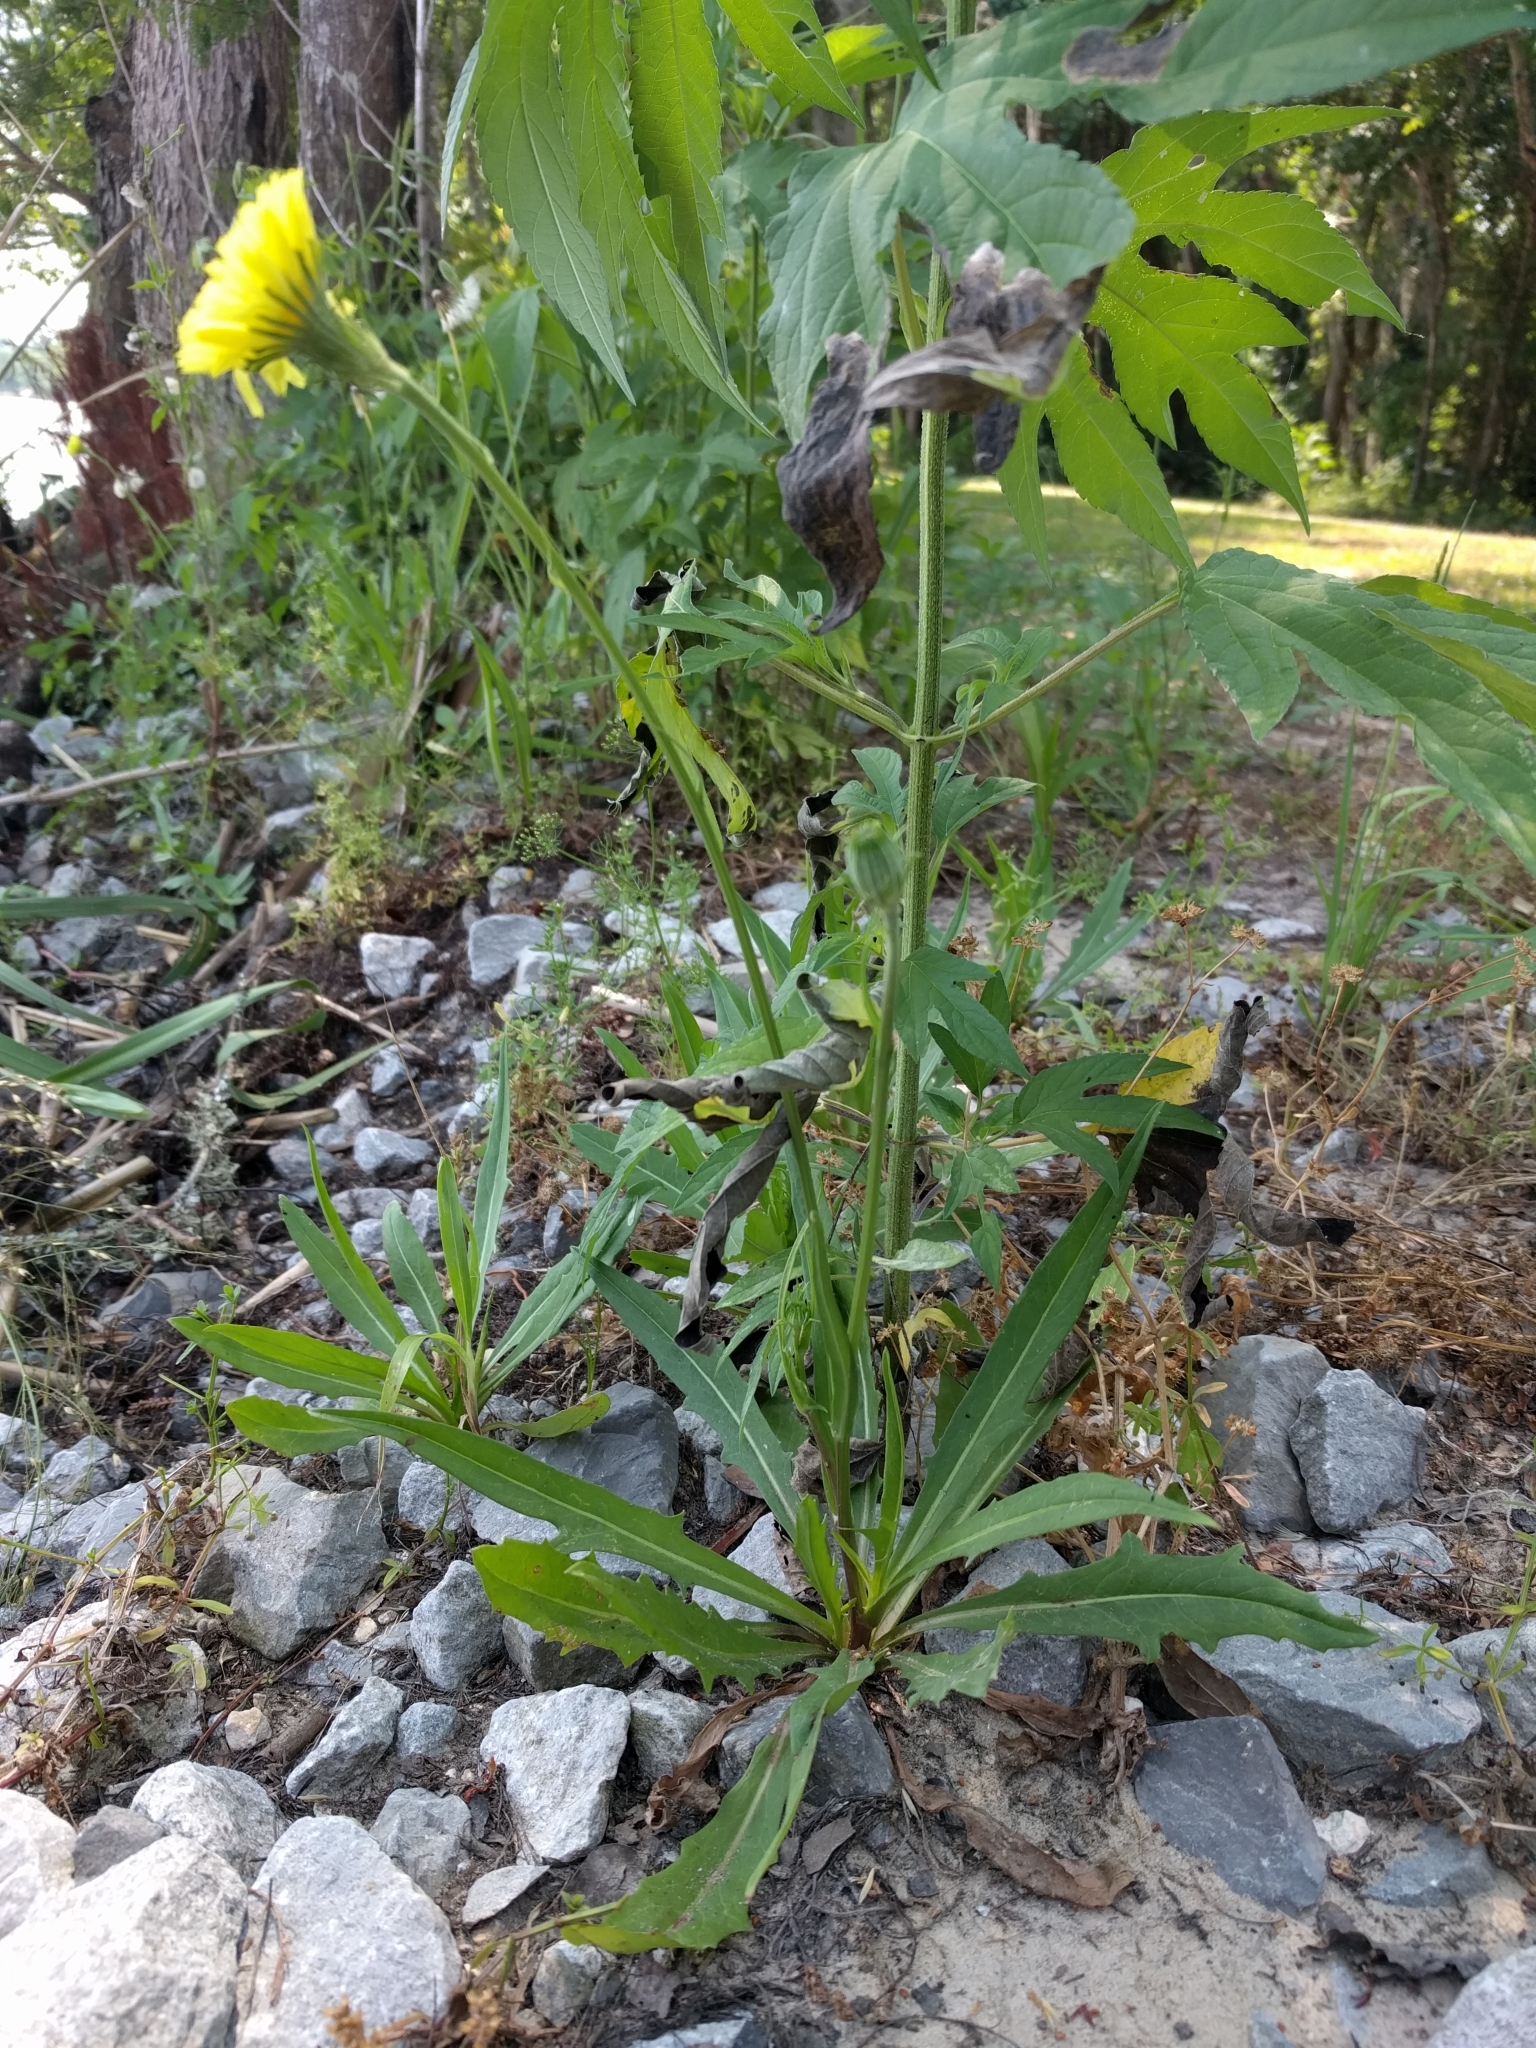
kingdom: Plantae
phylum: Tracheophyta
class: Magnoliopsida
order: Asterales
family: Asteraceae
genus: Pyrrhopappus
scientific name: Pyrrhopappus carolinianus
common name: Carolina desert-chicory
